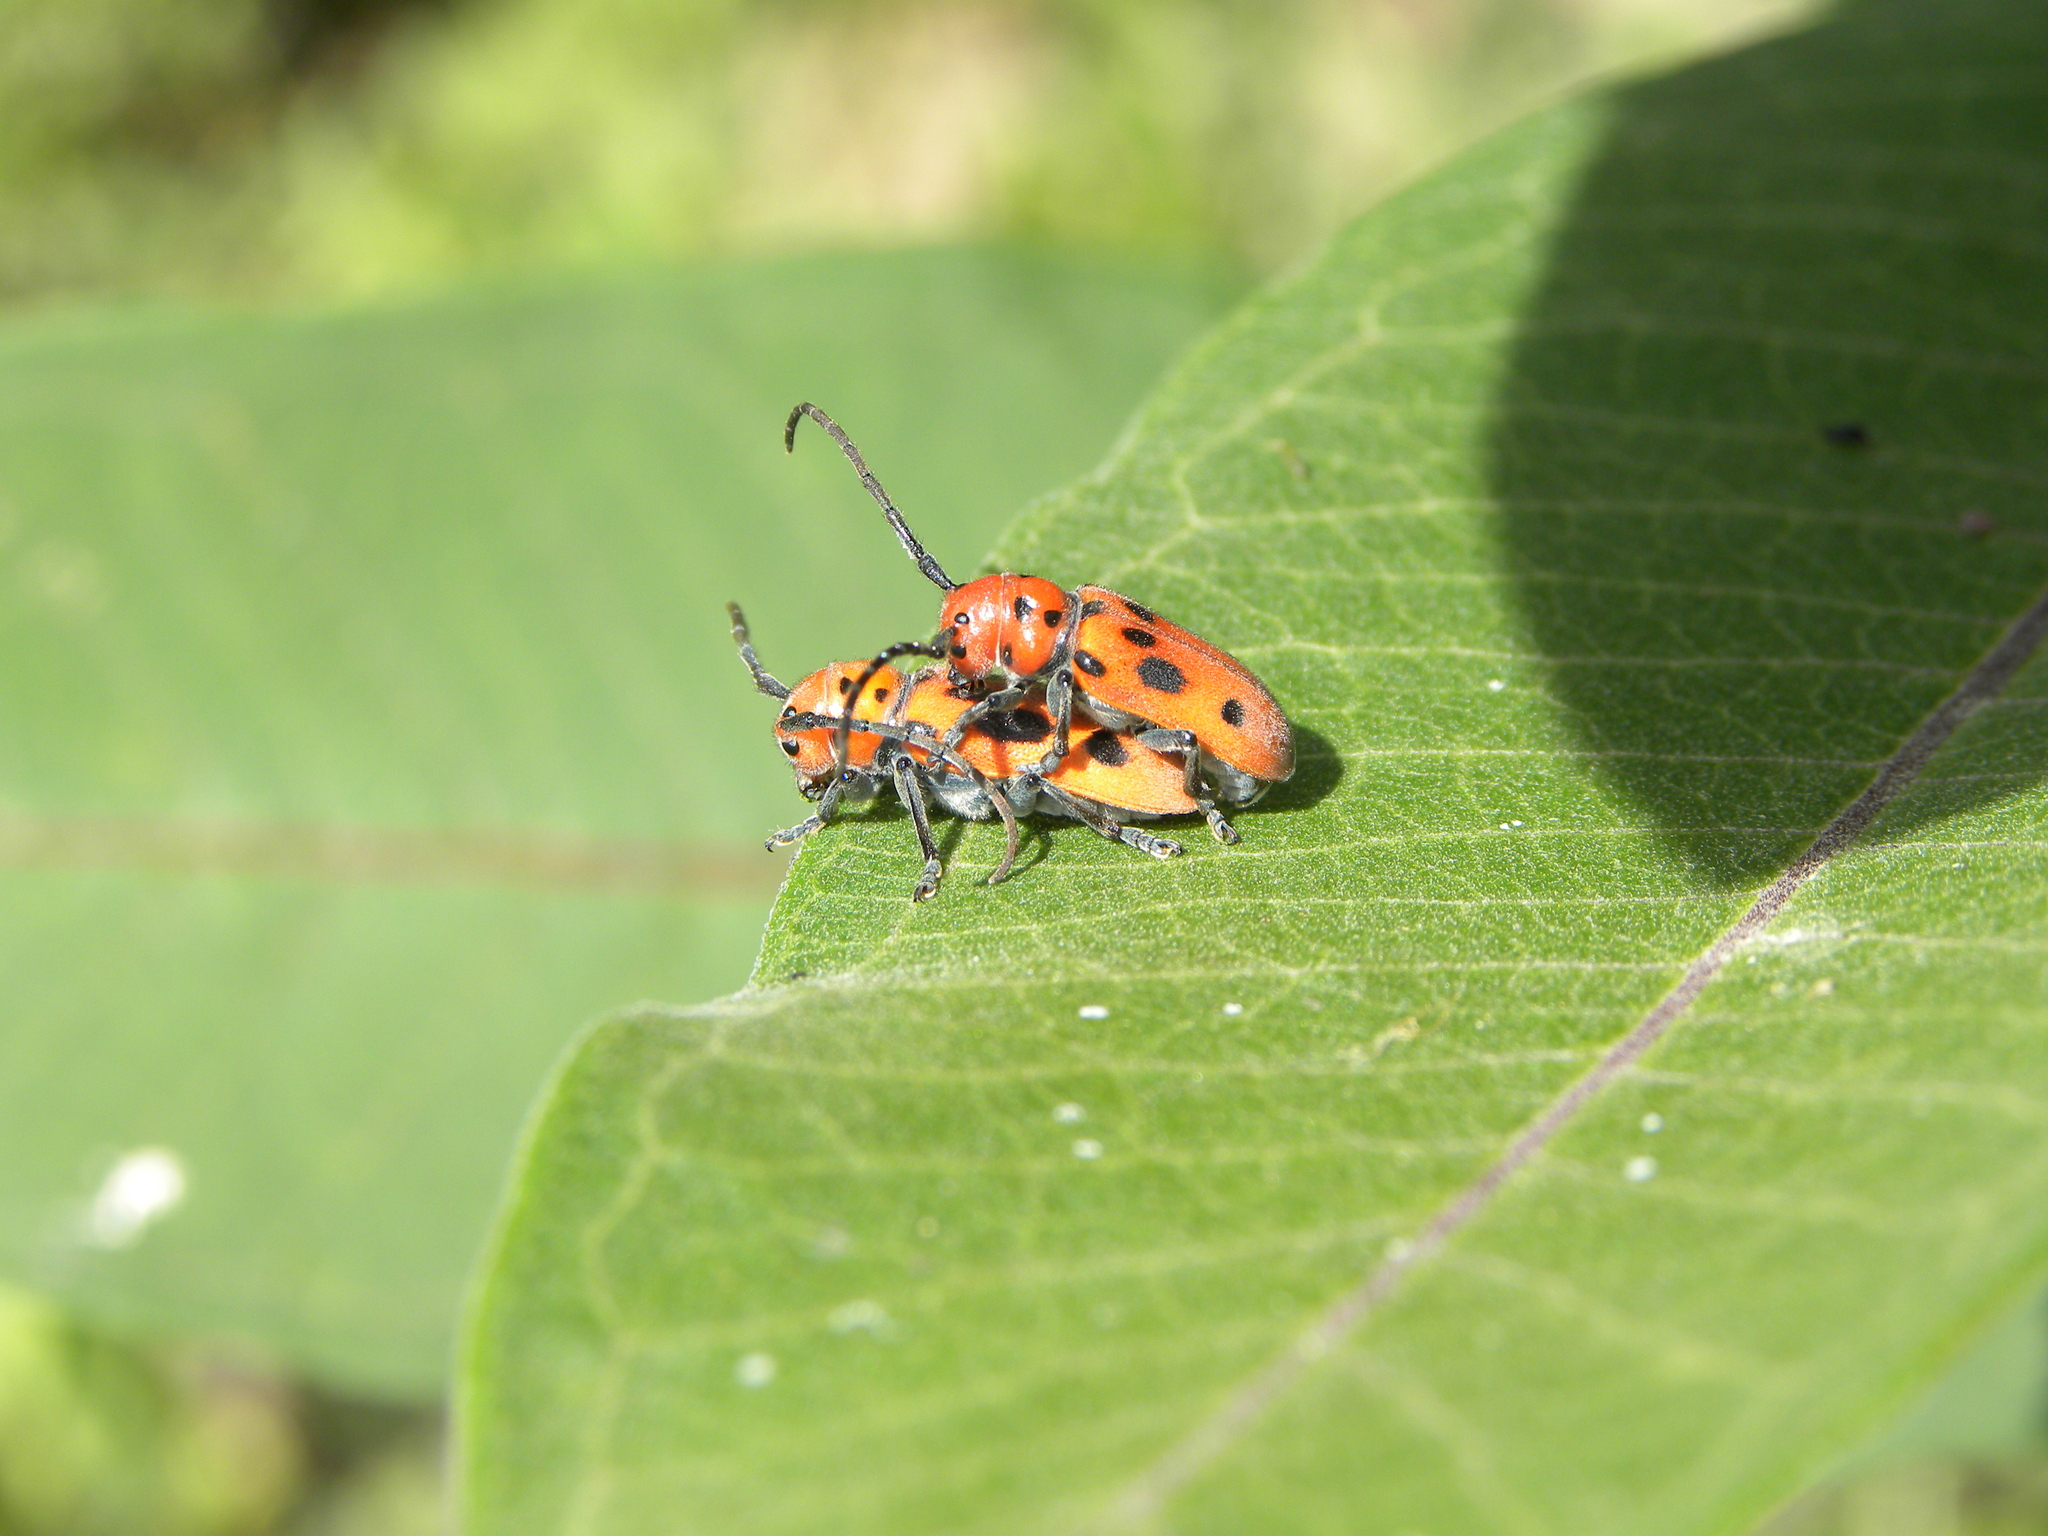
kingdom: Animalia
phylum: Arthropoda
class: Insecta
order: Coleoptera
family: Cerambycidae
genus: Tetraopes
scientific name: Tetraopes tetrophthalmus
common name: Red milkweed beetle
